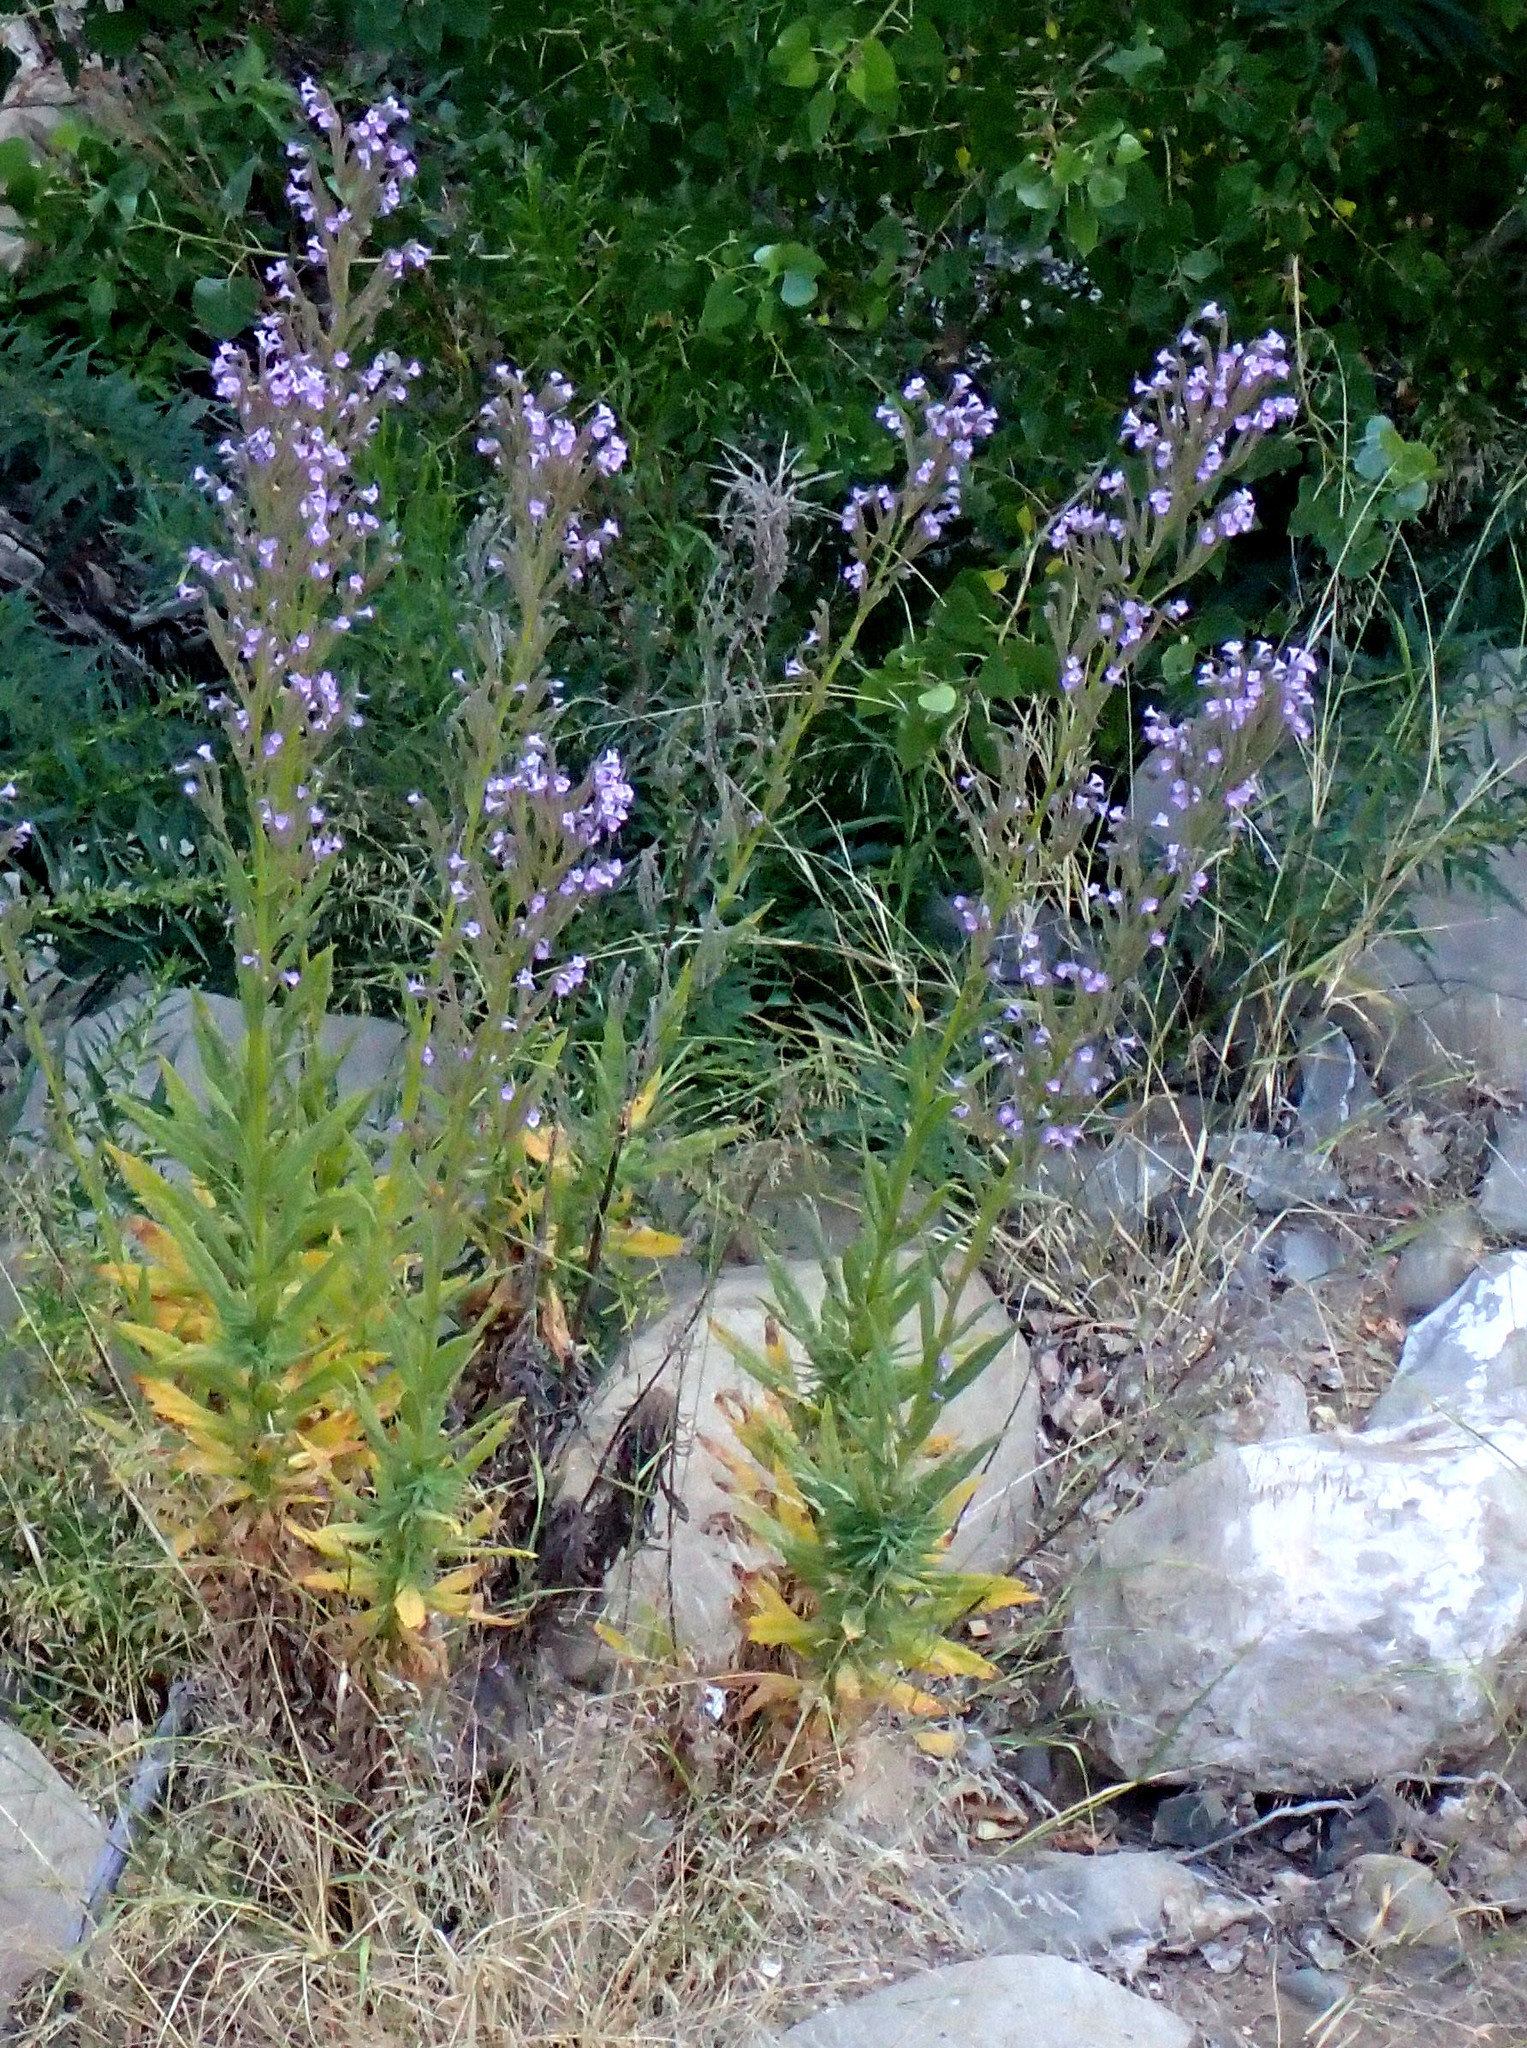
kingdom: Plantae
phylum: Tracheophyta
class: Magnoliopsida
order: Boraginales
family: Namaceae
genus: Turricula
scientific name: Turricula parryi
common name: Poodle-dog-bush
